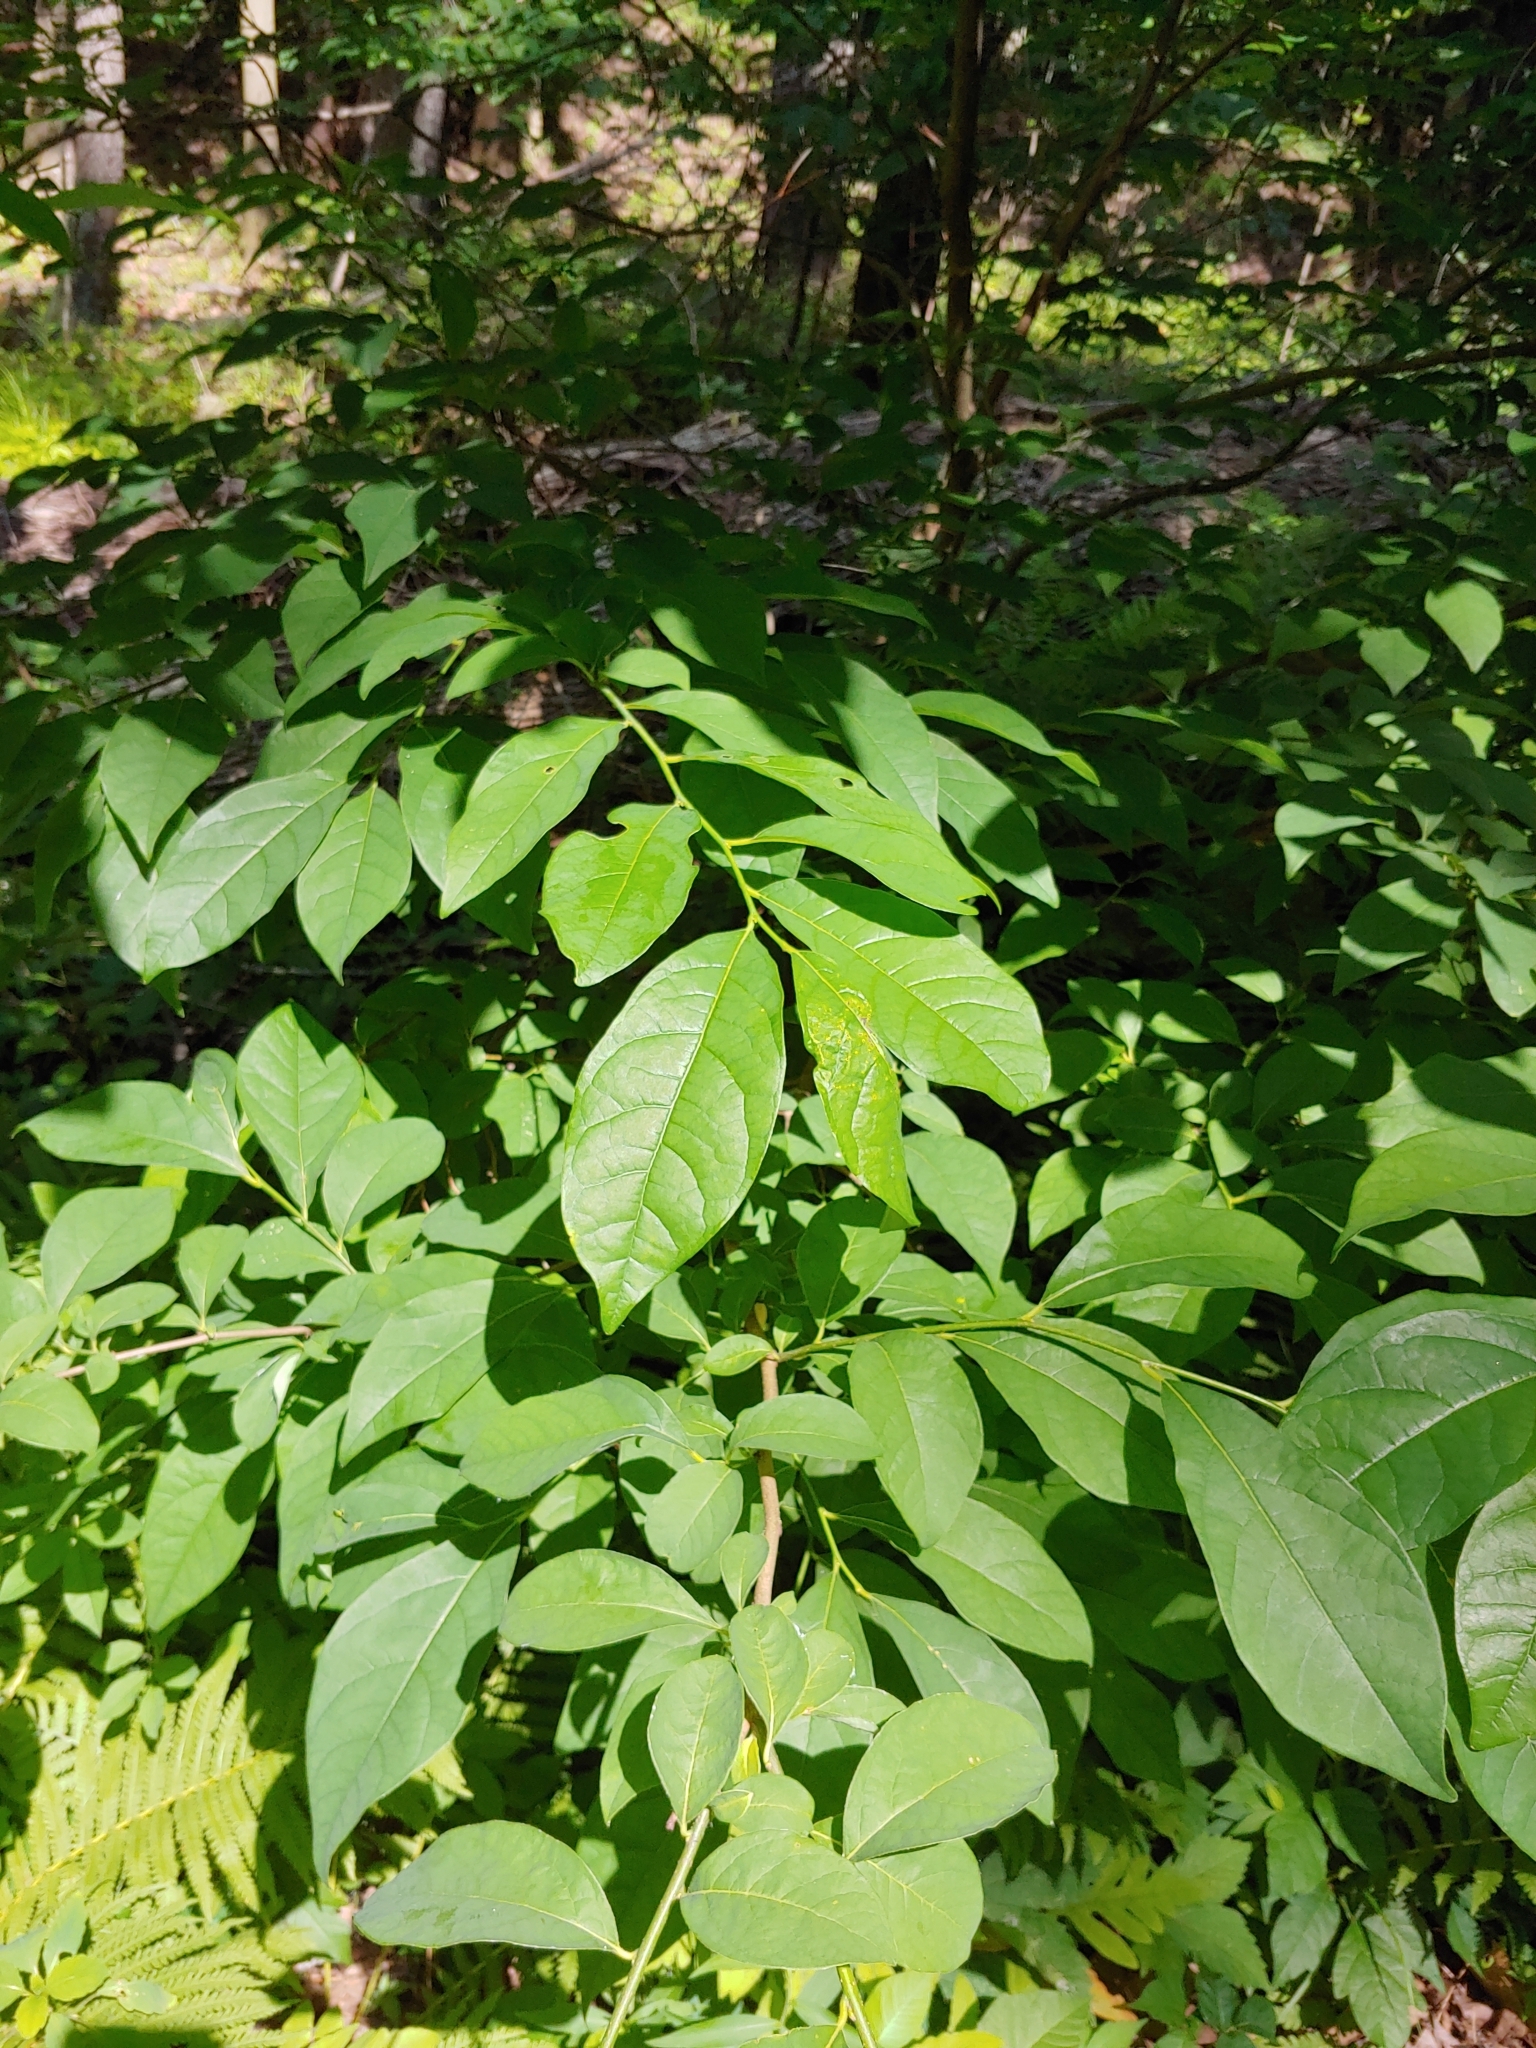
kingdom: Plantae
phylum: Tracheophyta
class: Magnoliopsida
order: Laurales
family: Lauraceae
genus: Lindera
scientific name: Lindera benzoin
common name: Spicebush
